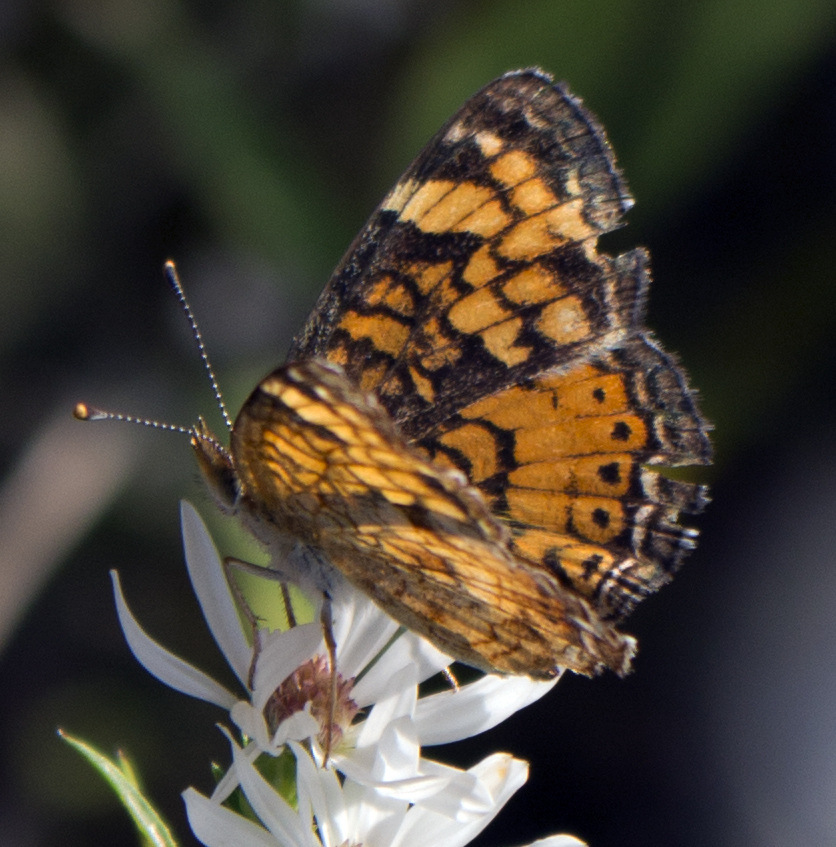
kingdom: Animalia
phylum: Arthropoda
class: Insecta
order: Lepidoptera
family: Nymphalidae
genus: Phyciodes
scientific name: Phyciodes tharos
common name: Pearl crescent
